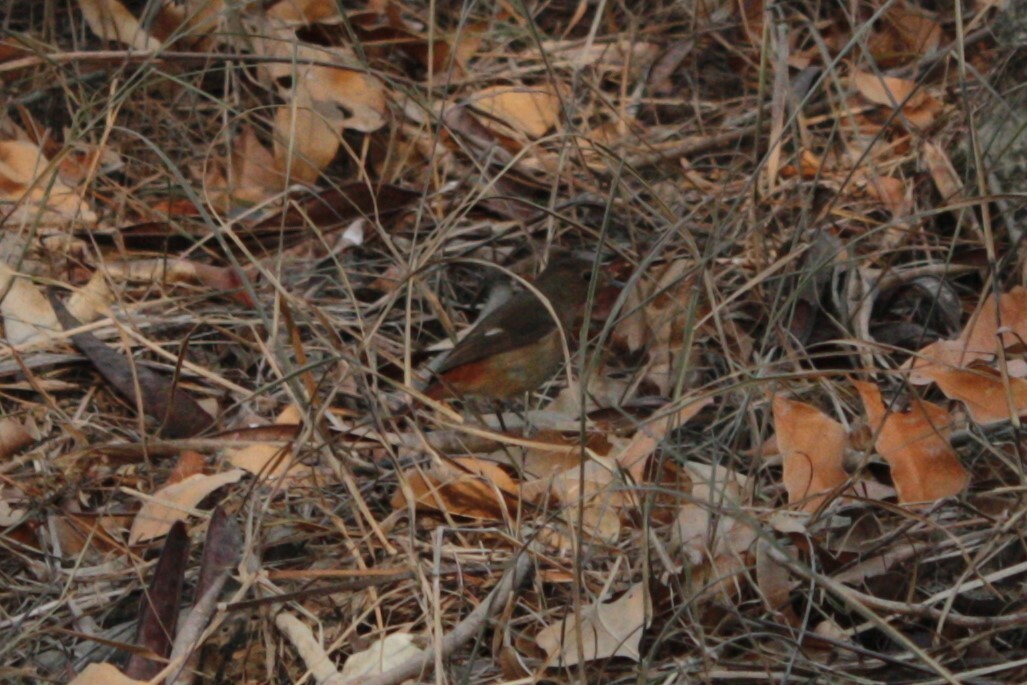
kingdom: Animalia
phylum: Chordata
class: Aves
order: Passeriformes
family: Muscicapidae
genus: Phoenicurus
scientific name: Phoenicurus auroreus
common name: Daurian redstart
